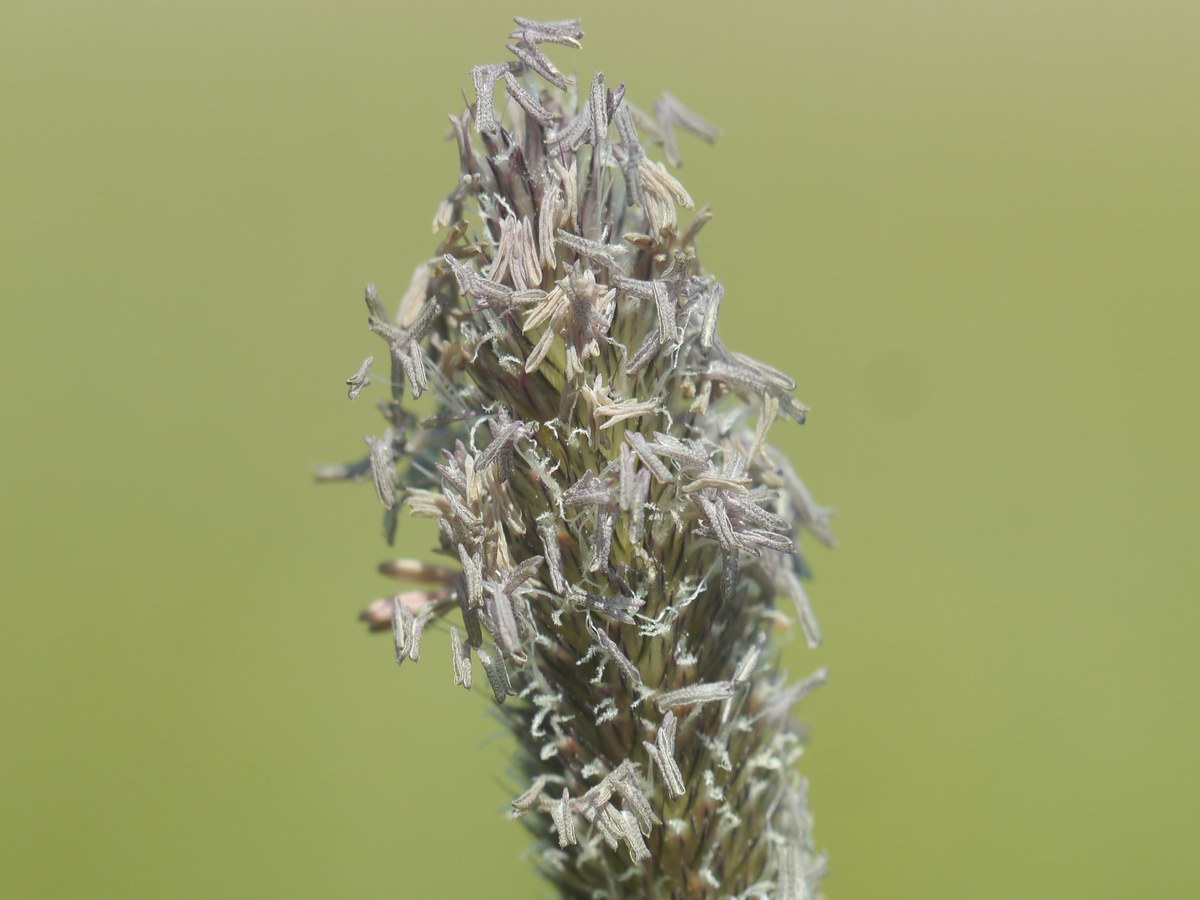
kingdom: Plantae
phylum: Tracheophyta
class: Liliopsida
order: Poales
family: Poaceae
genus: Alopecurus
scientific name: Alopecurus arundinaceus
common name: Creeping meadow foxtail
